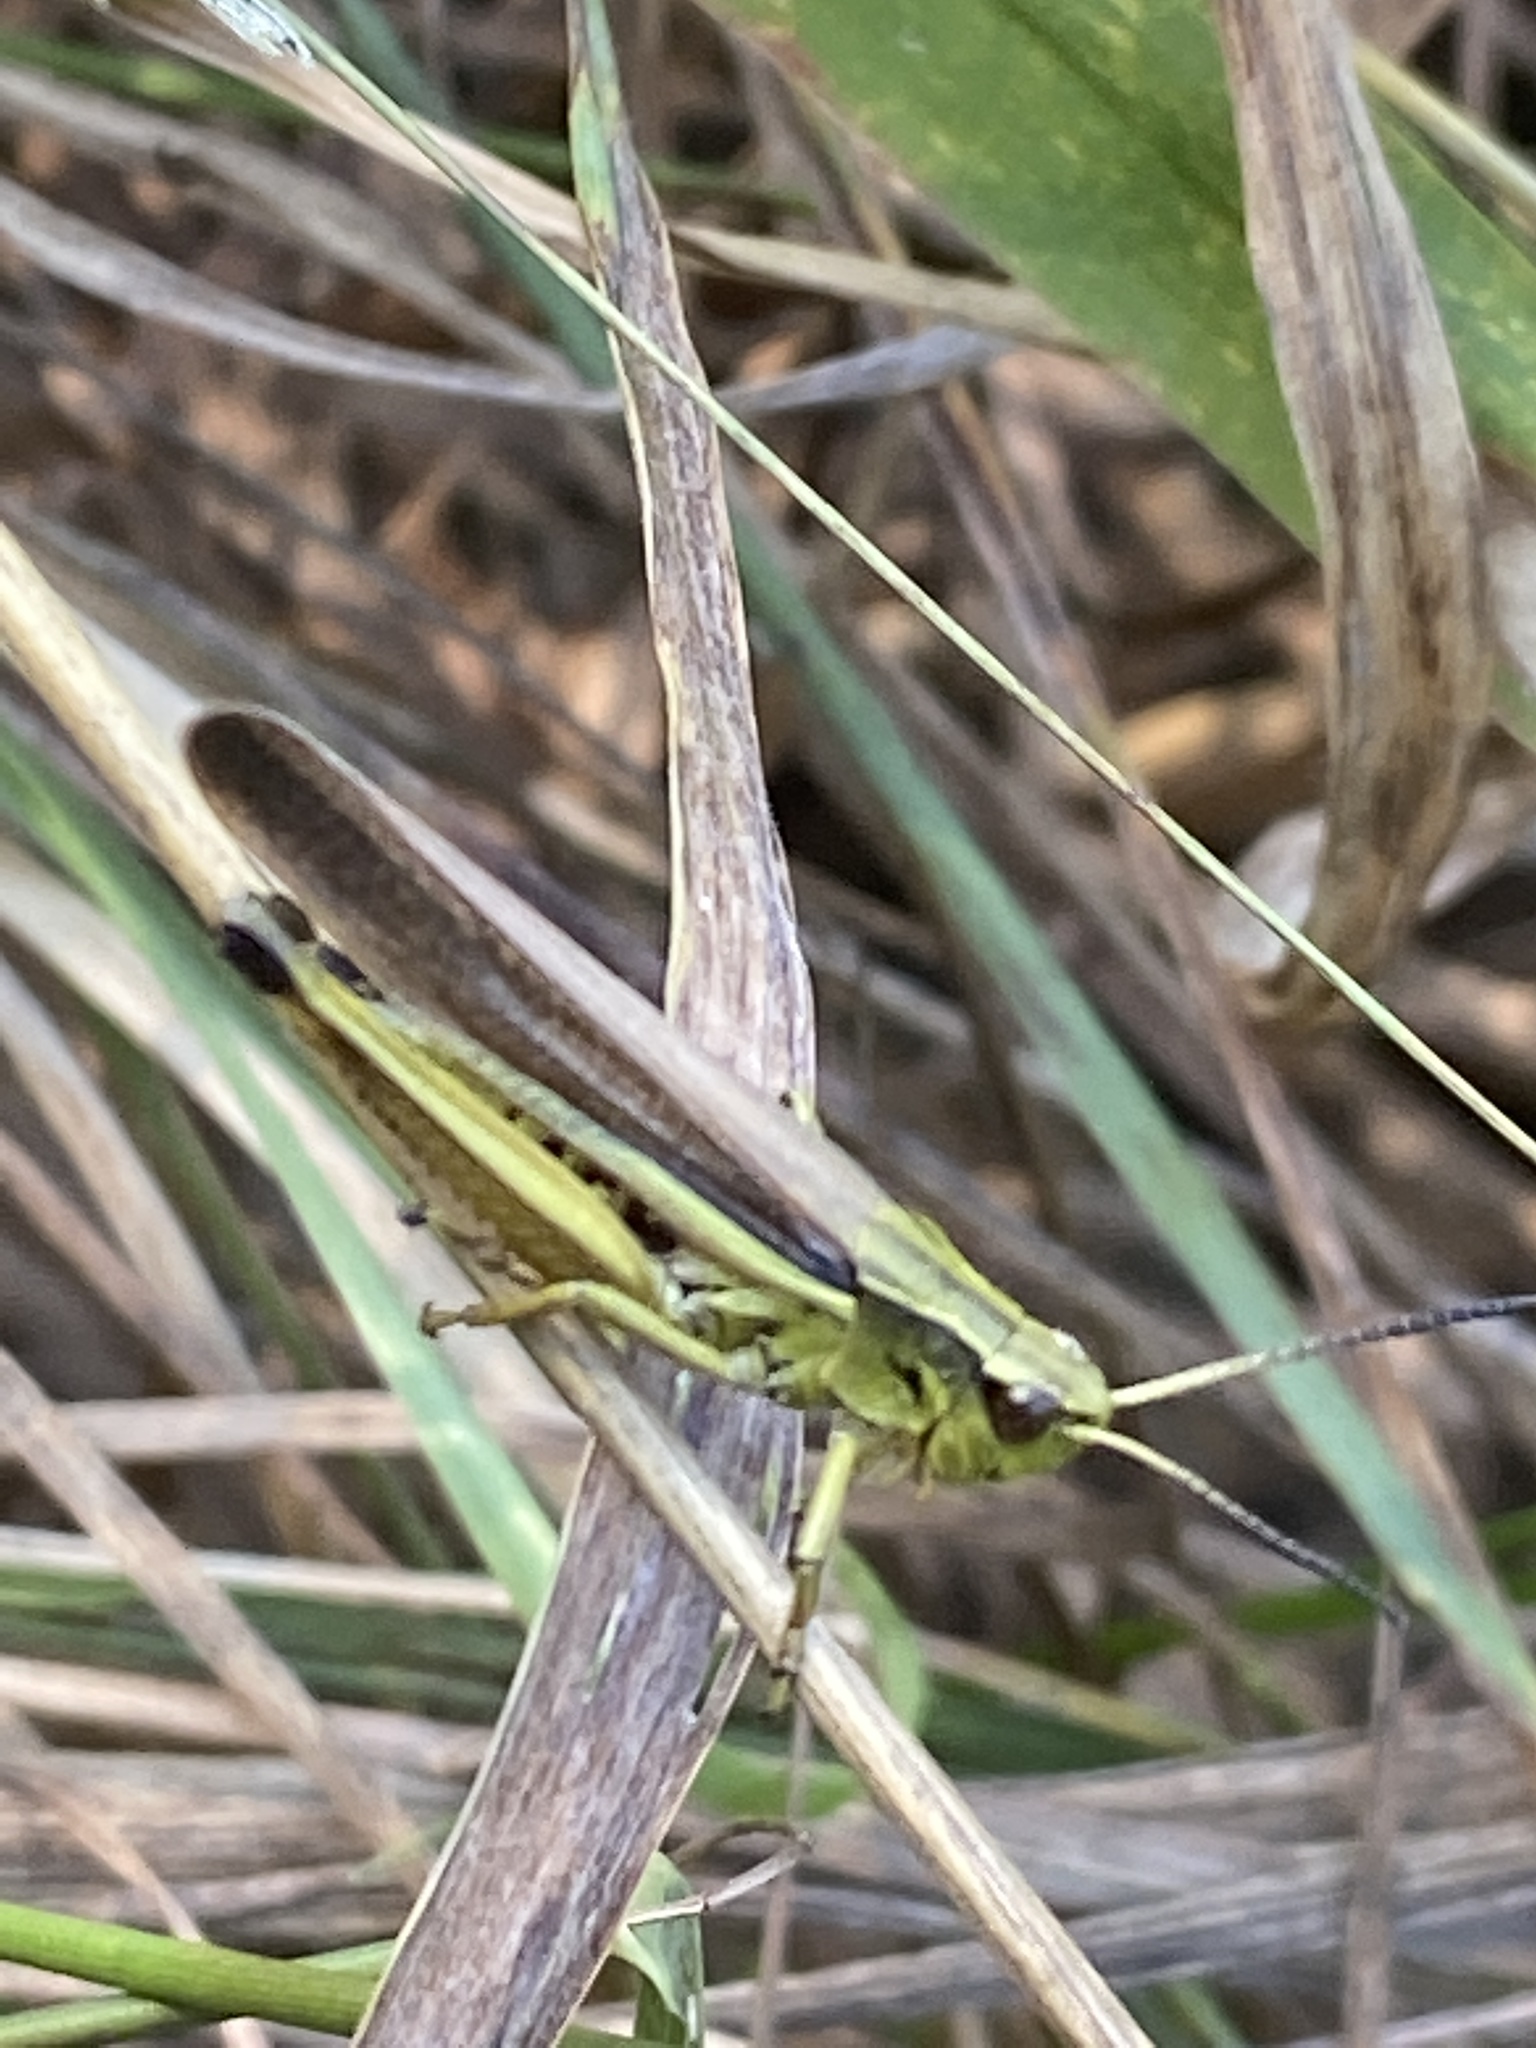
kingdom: Animalia
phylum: Arthropoda
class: Insecta
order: Orthoptera
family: Acrididae
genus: Stethophyma
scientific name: Stethophyma grossum
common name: Large marsh grasshopper
